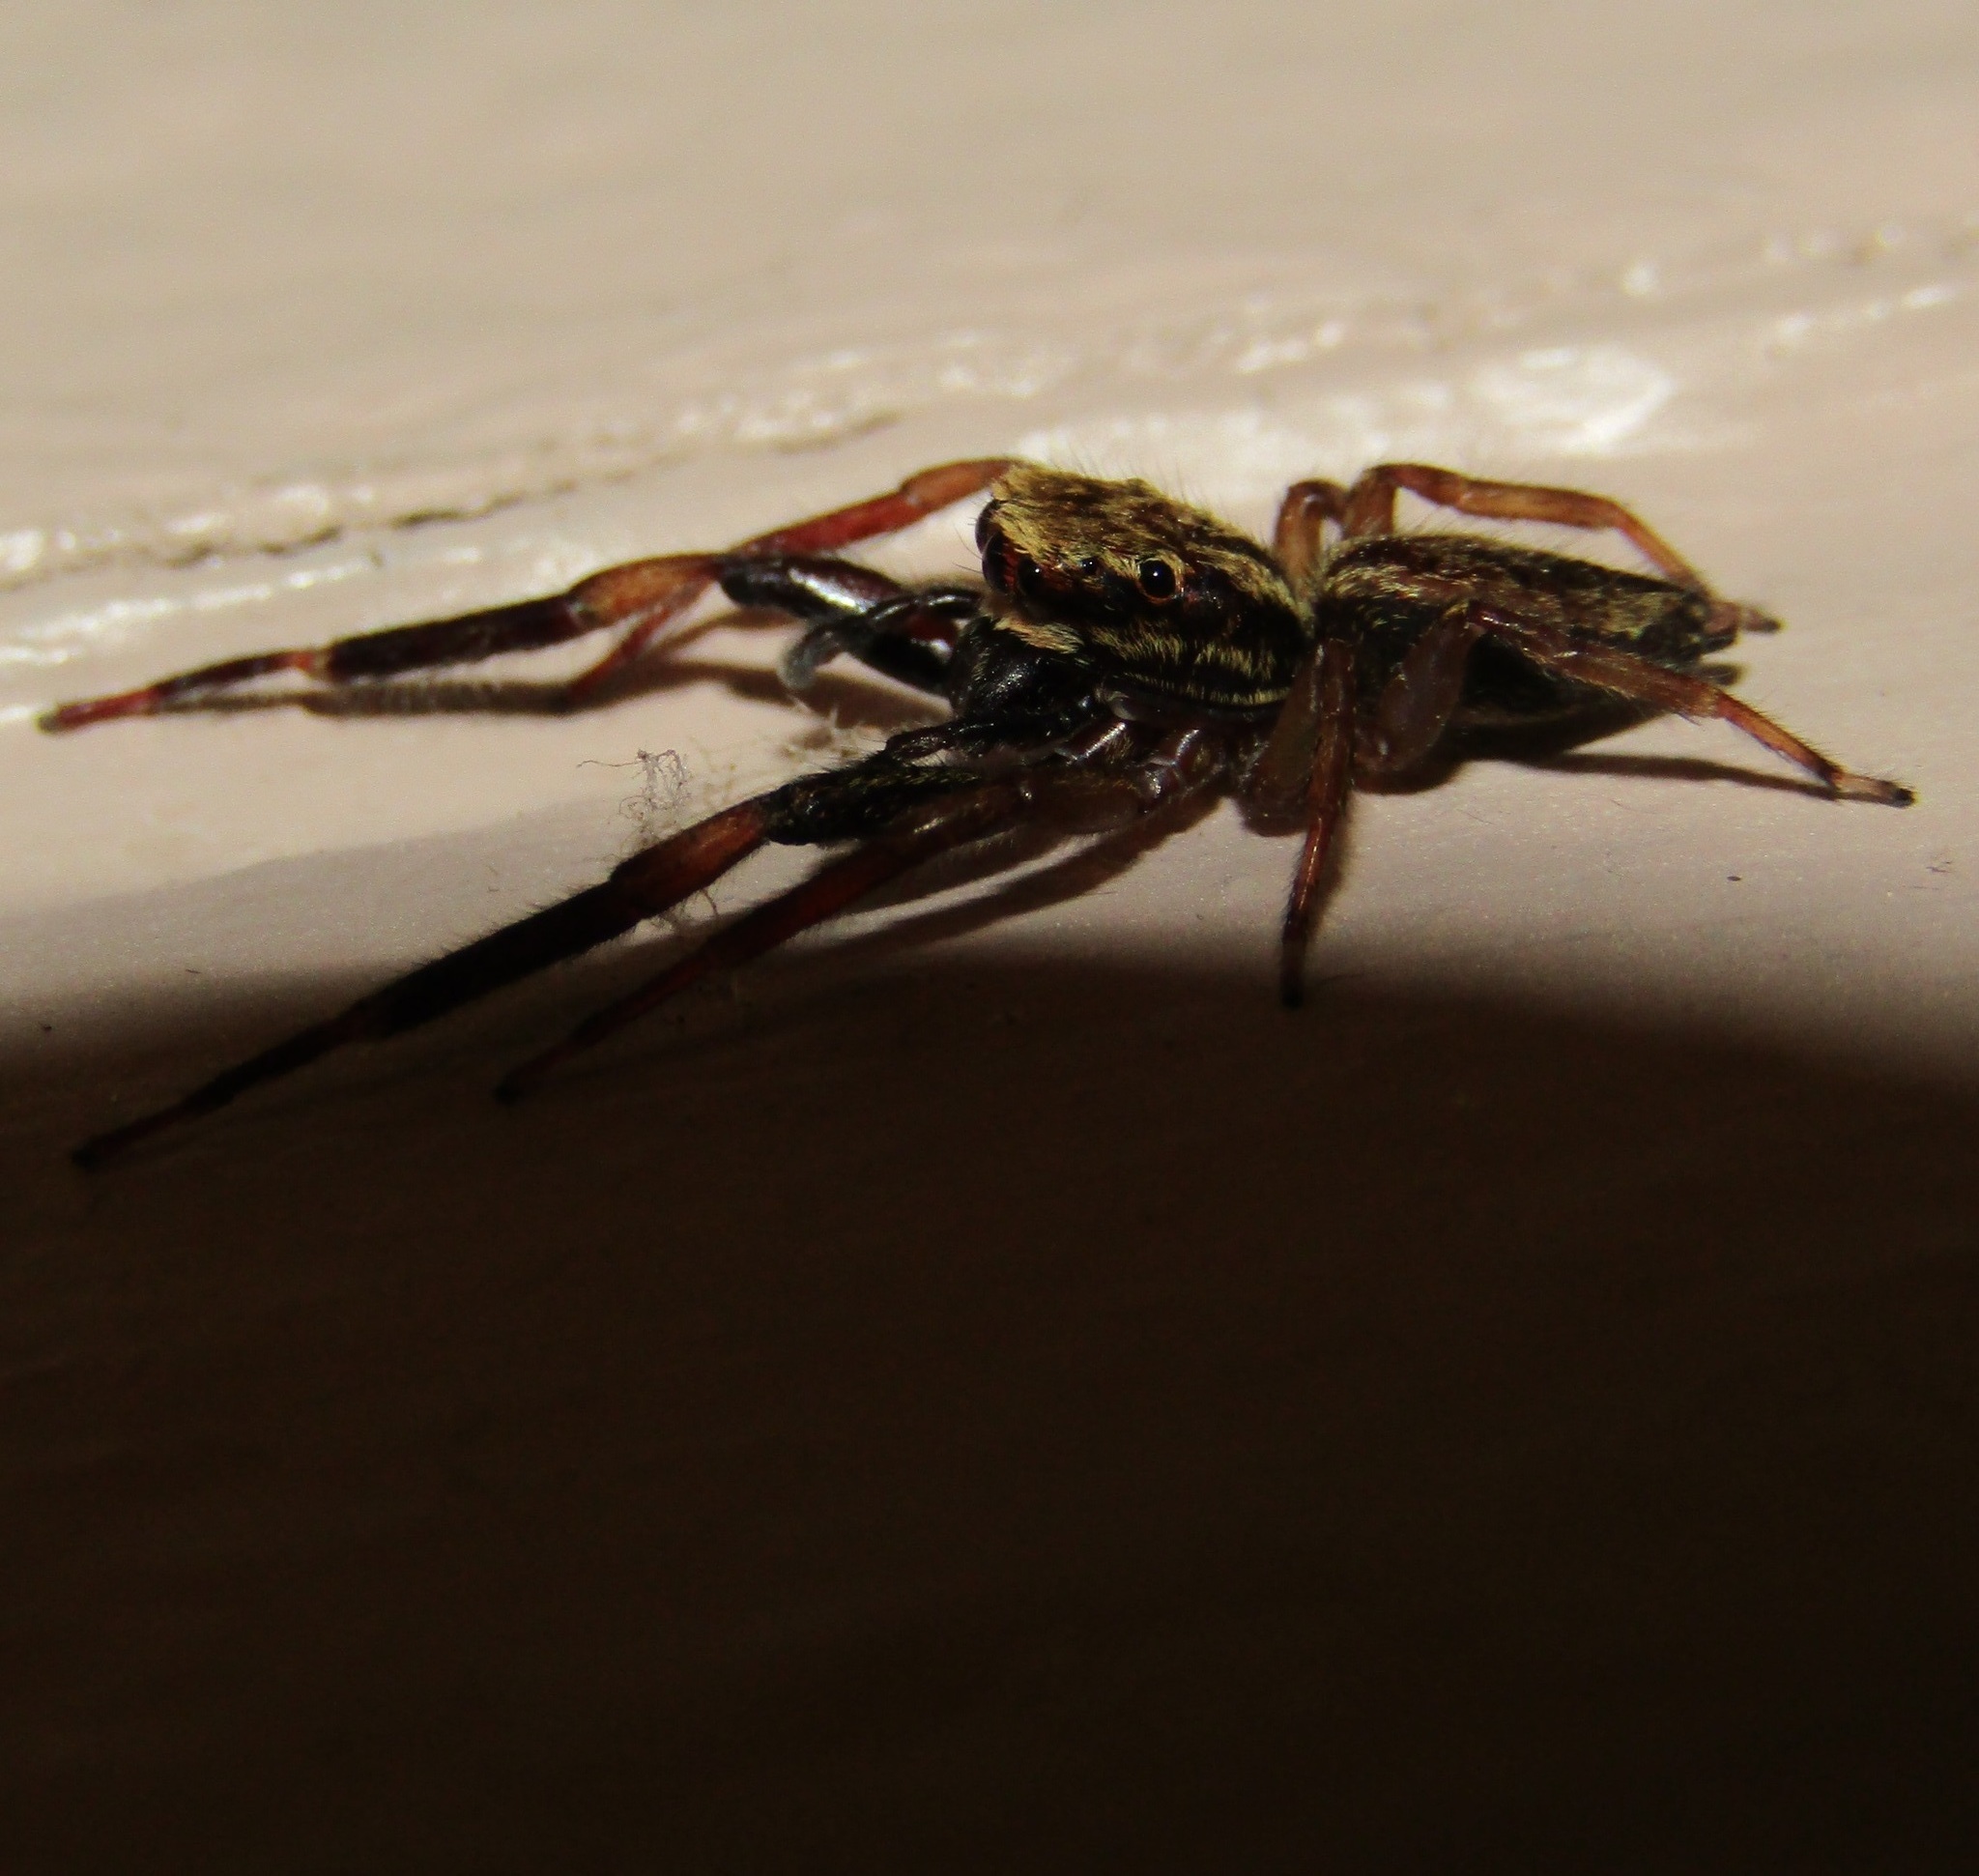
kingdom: Animalia
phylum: Arthropoda
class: Arachnida
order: Araneae
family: Salticidae
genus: Trite
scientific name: Trite auricoma
